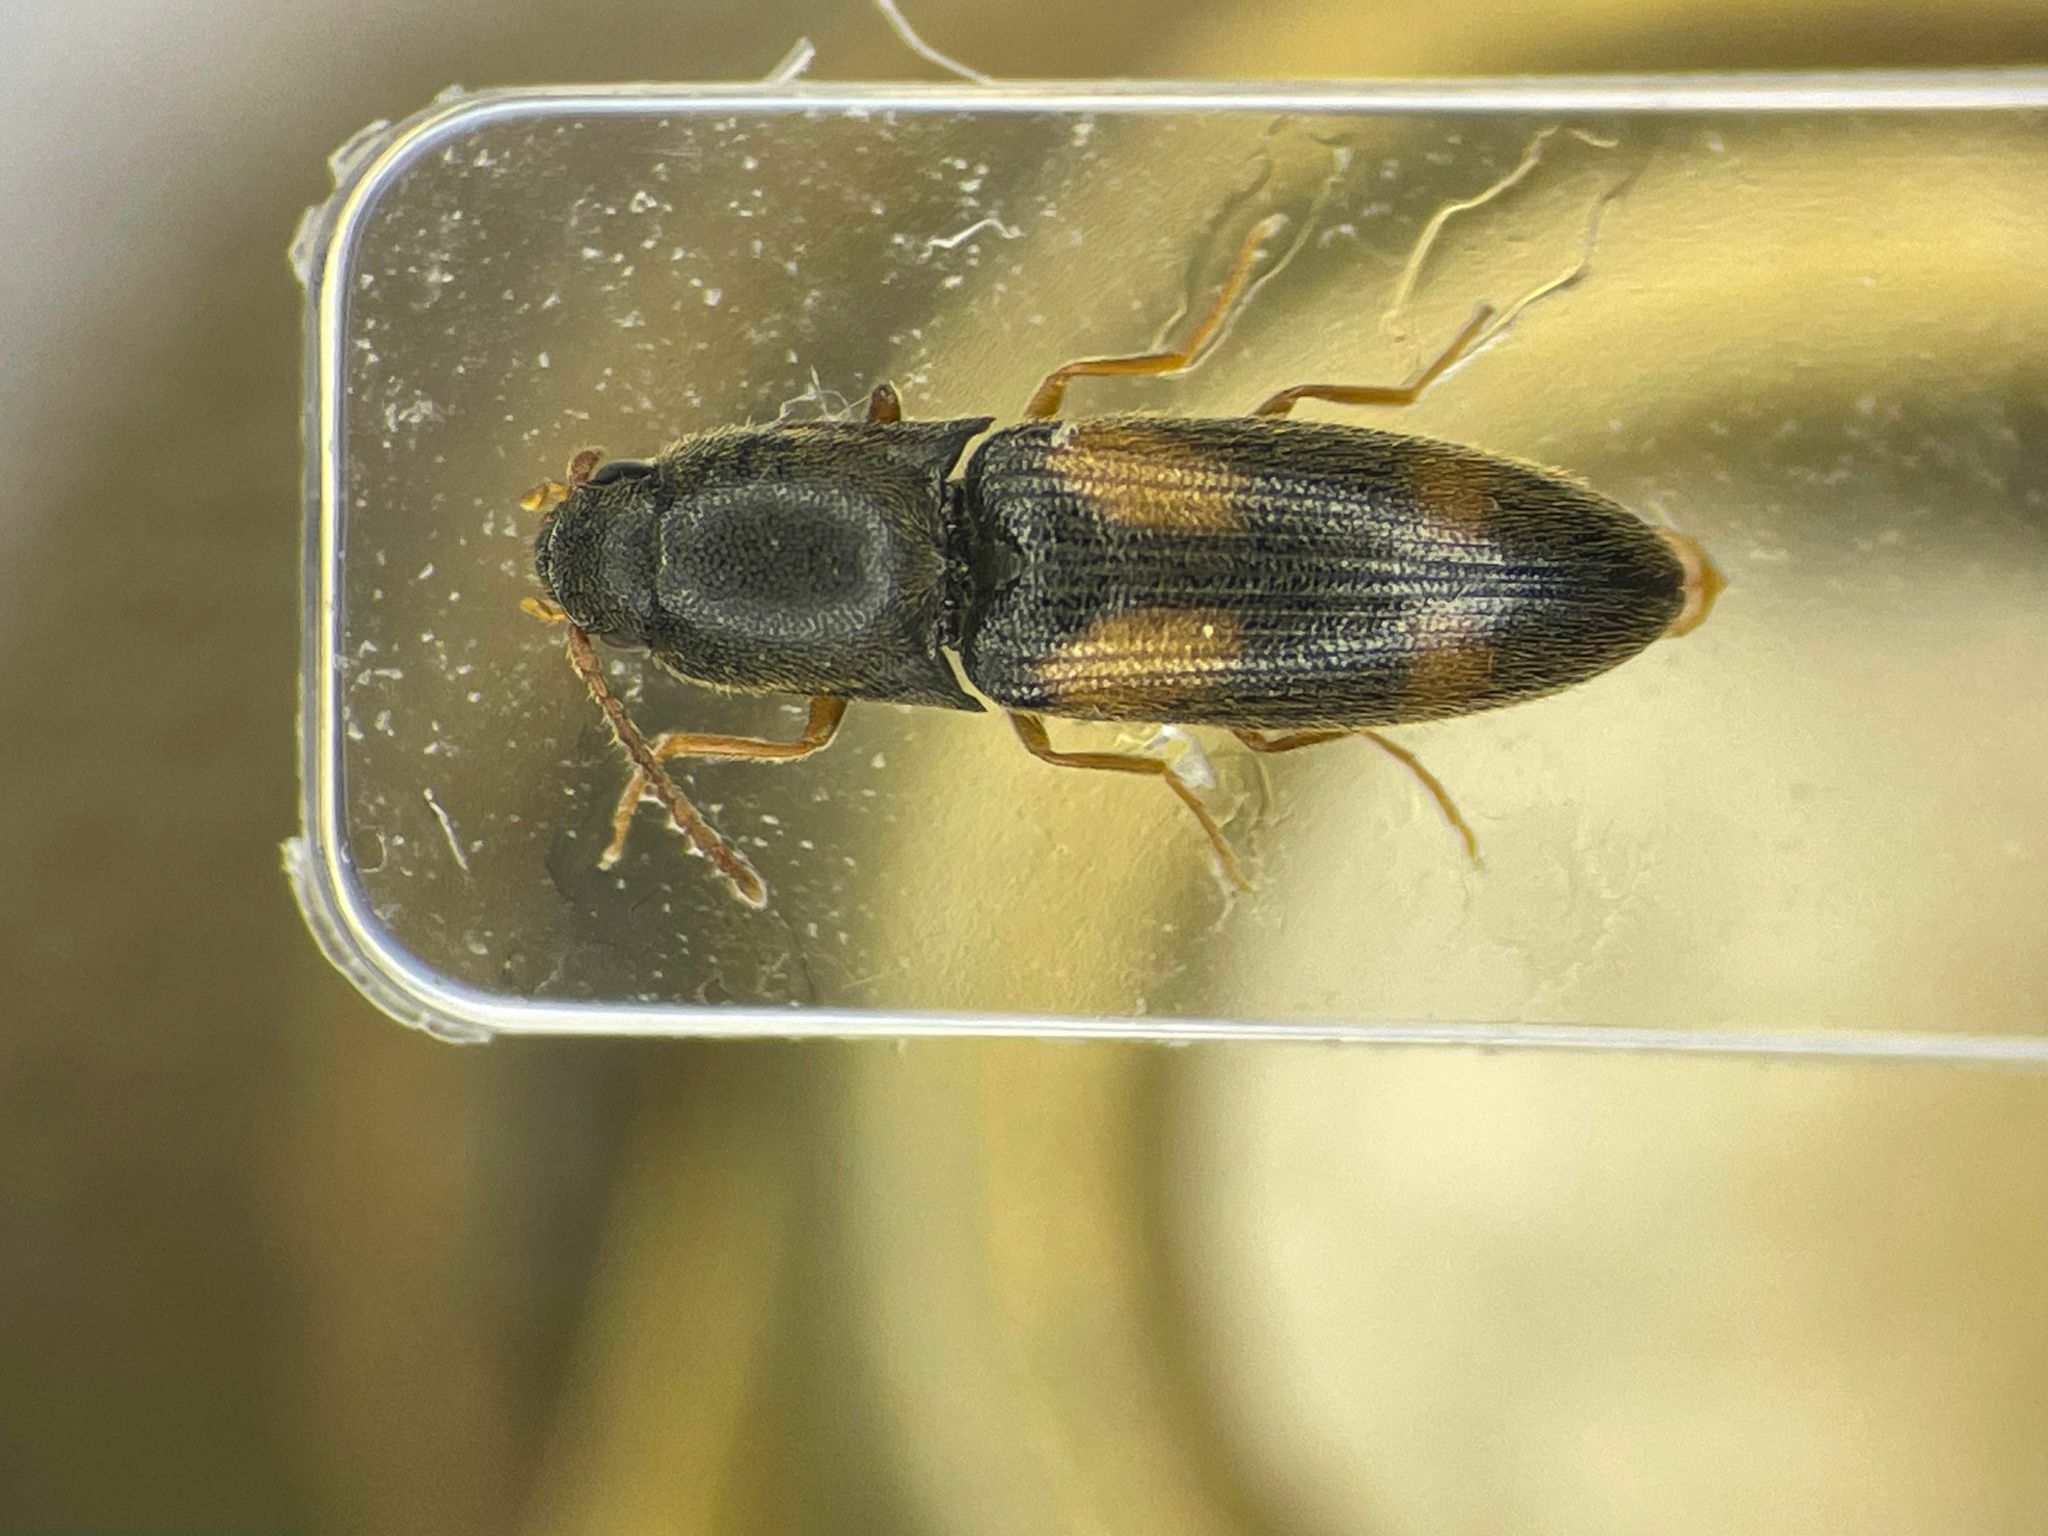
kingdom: Animalia
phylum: Arthropoda
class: Insecta
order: Coleoptera
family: Elateridae
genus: Idolus
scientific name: Idolus bigeminatus
